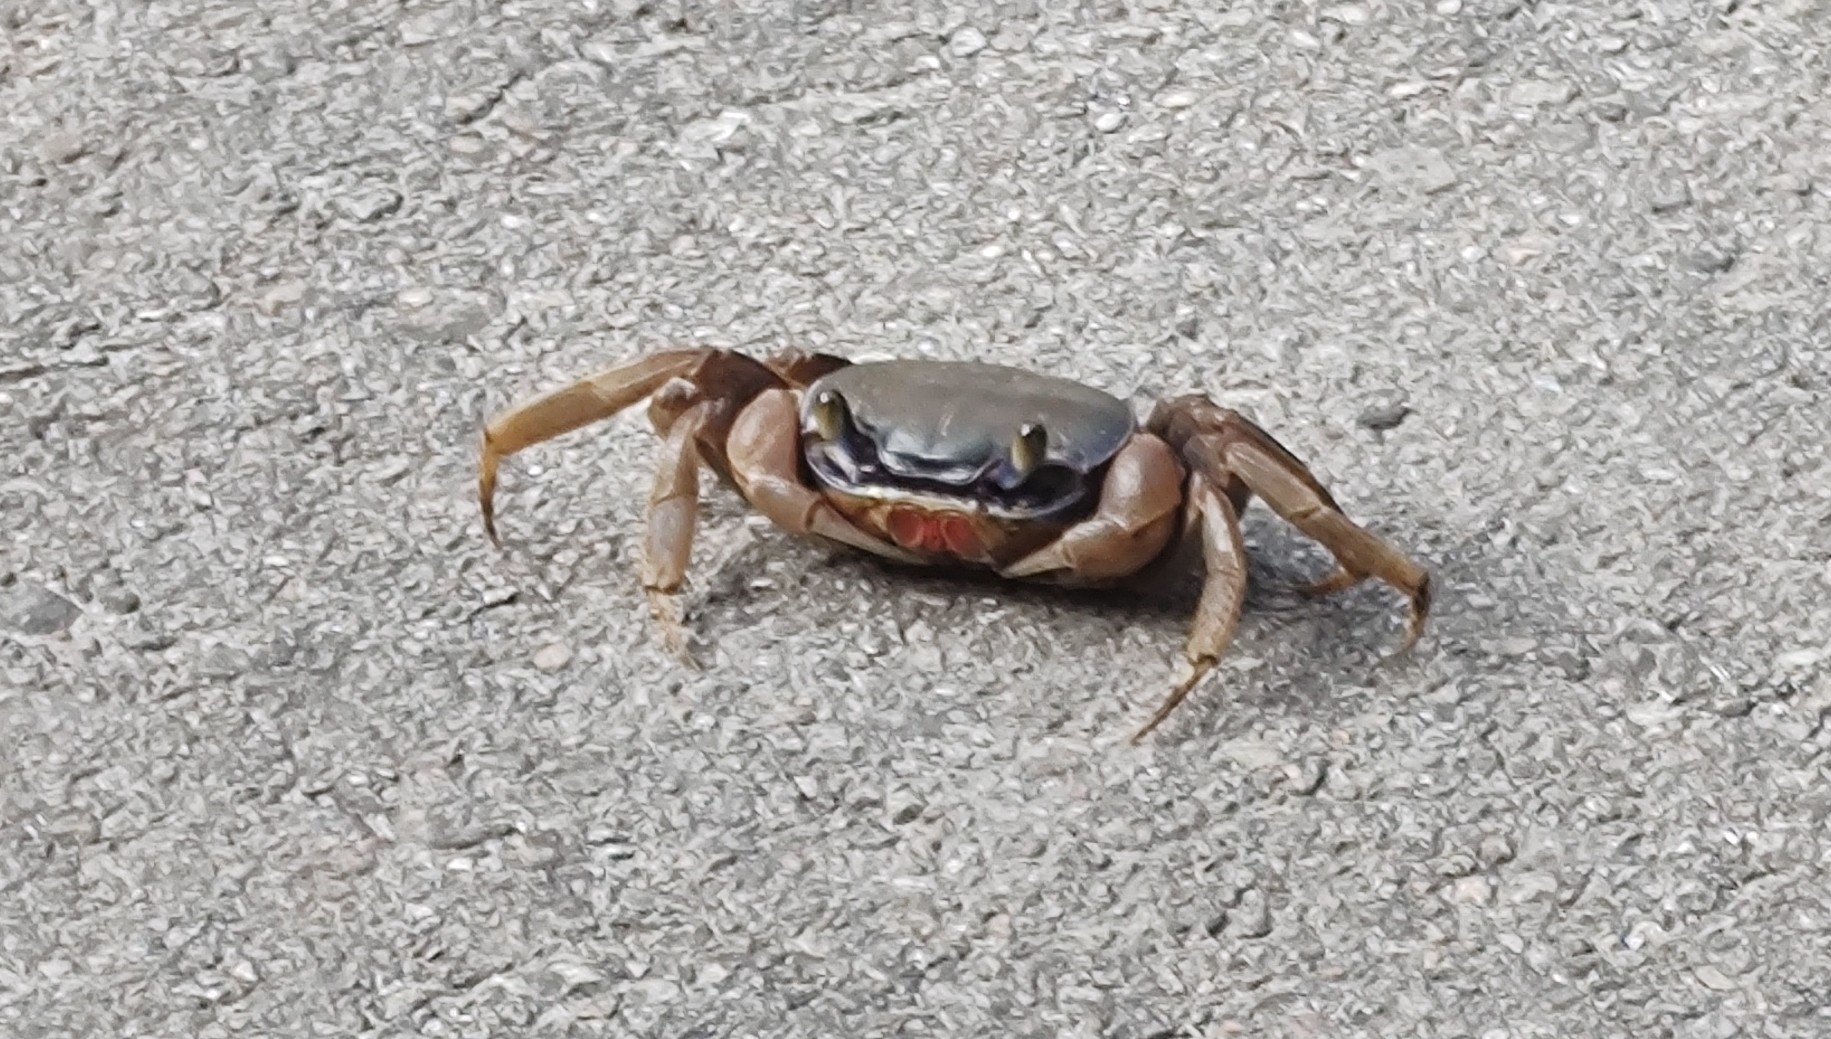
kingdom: Animalia
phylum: Arthropoda
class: Malacostraca
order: Decapoda
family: Gecarcinidae
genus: Cardisoma
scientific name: Cardisoma guanhumi
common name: Great land crab
